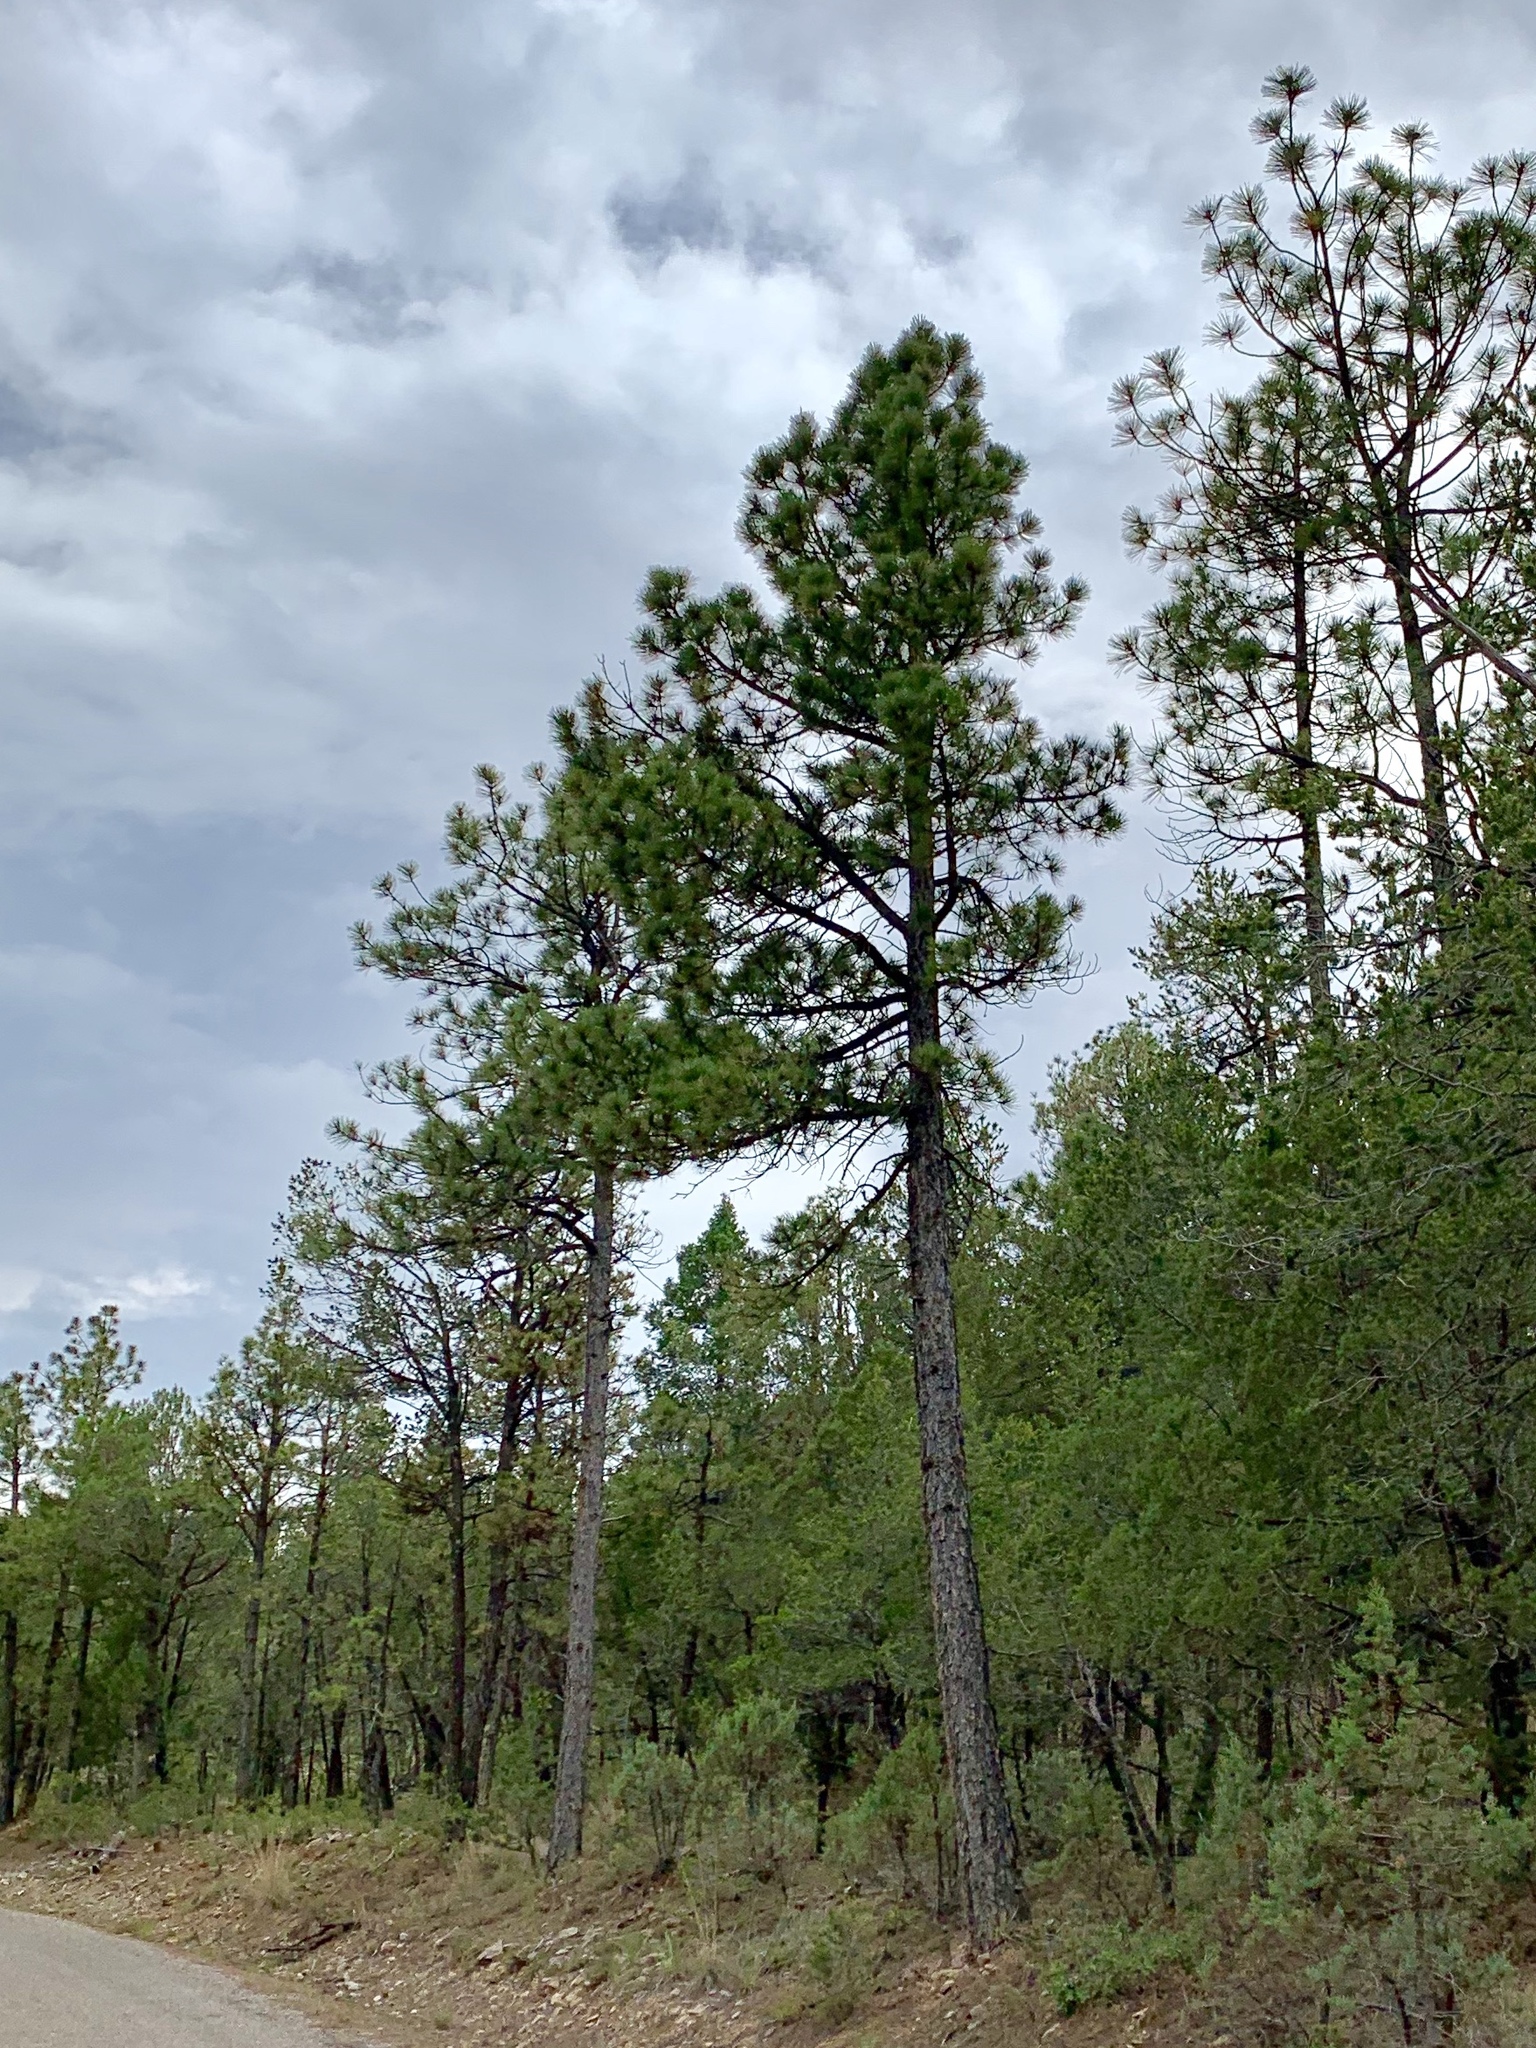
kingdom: Plantae
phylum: Tracheophyta
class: Pinopsida
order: Pinales
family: Pinaceae
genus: Pinus
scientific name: Pinus ponderosa
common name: Western yellow-pine
